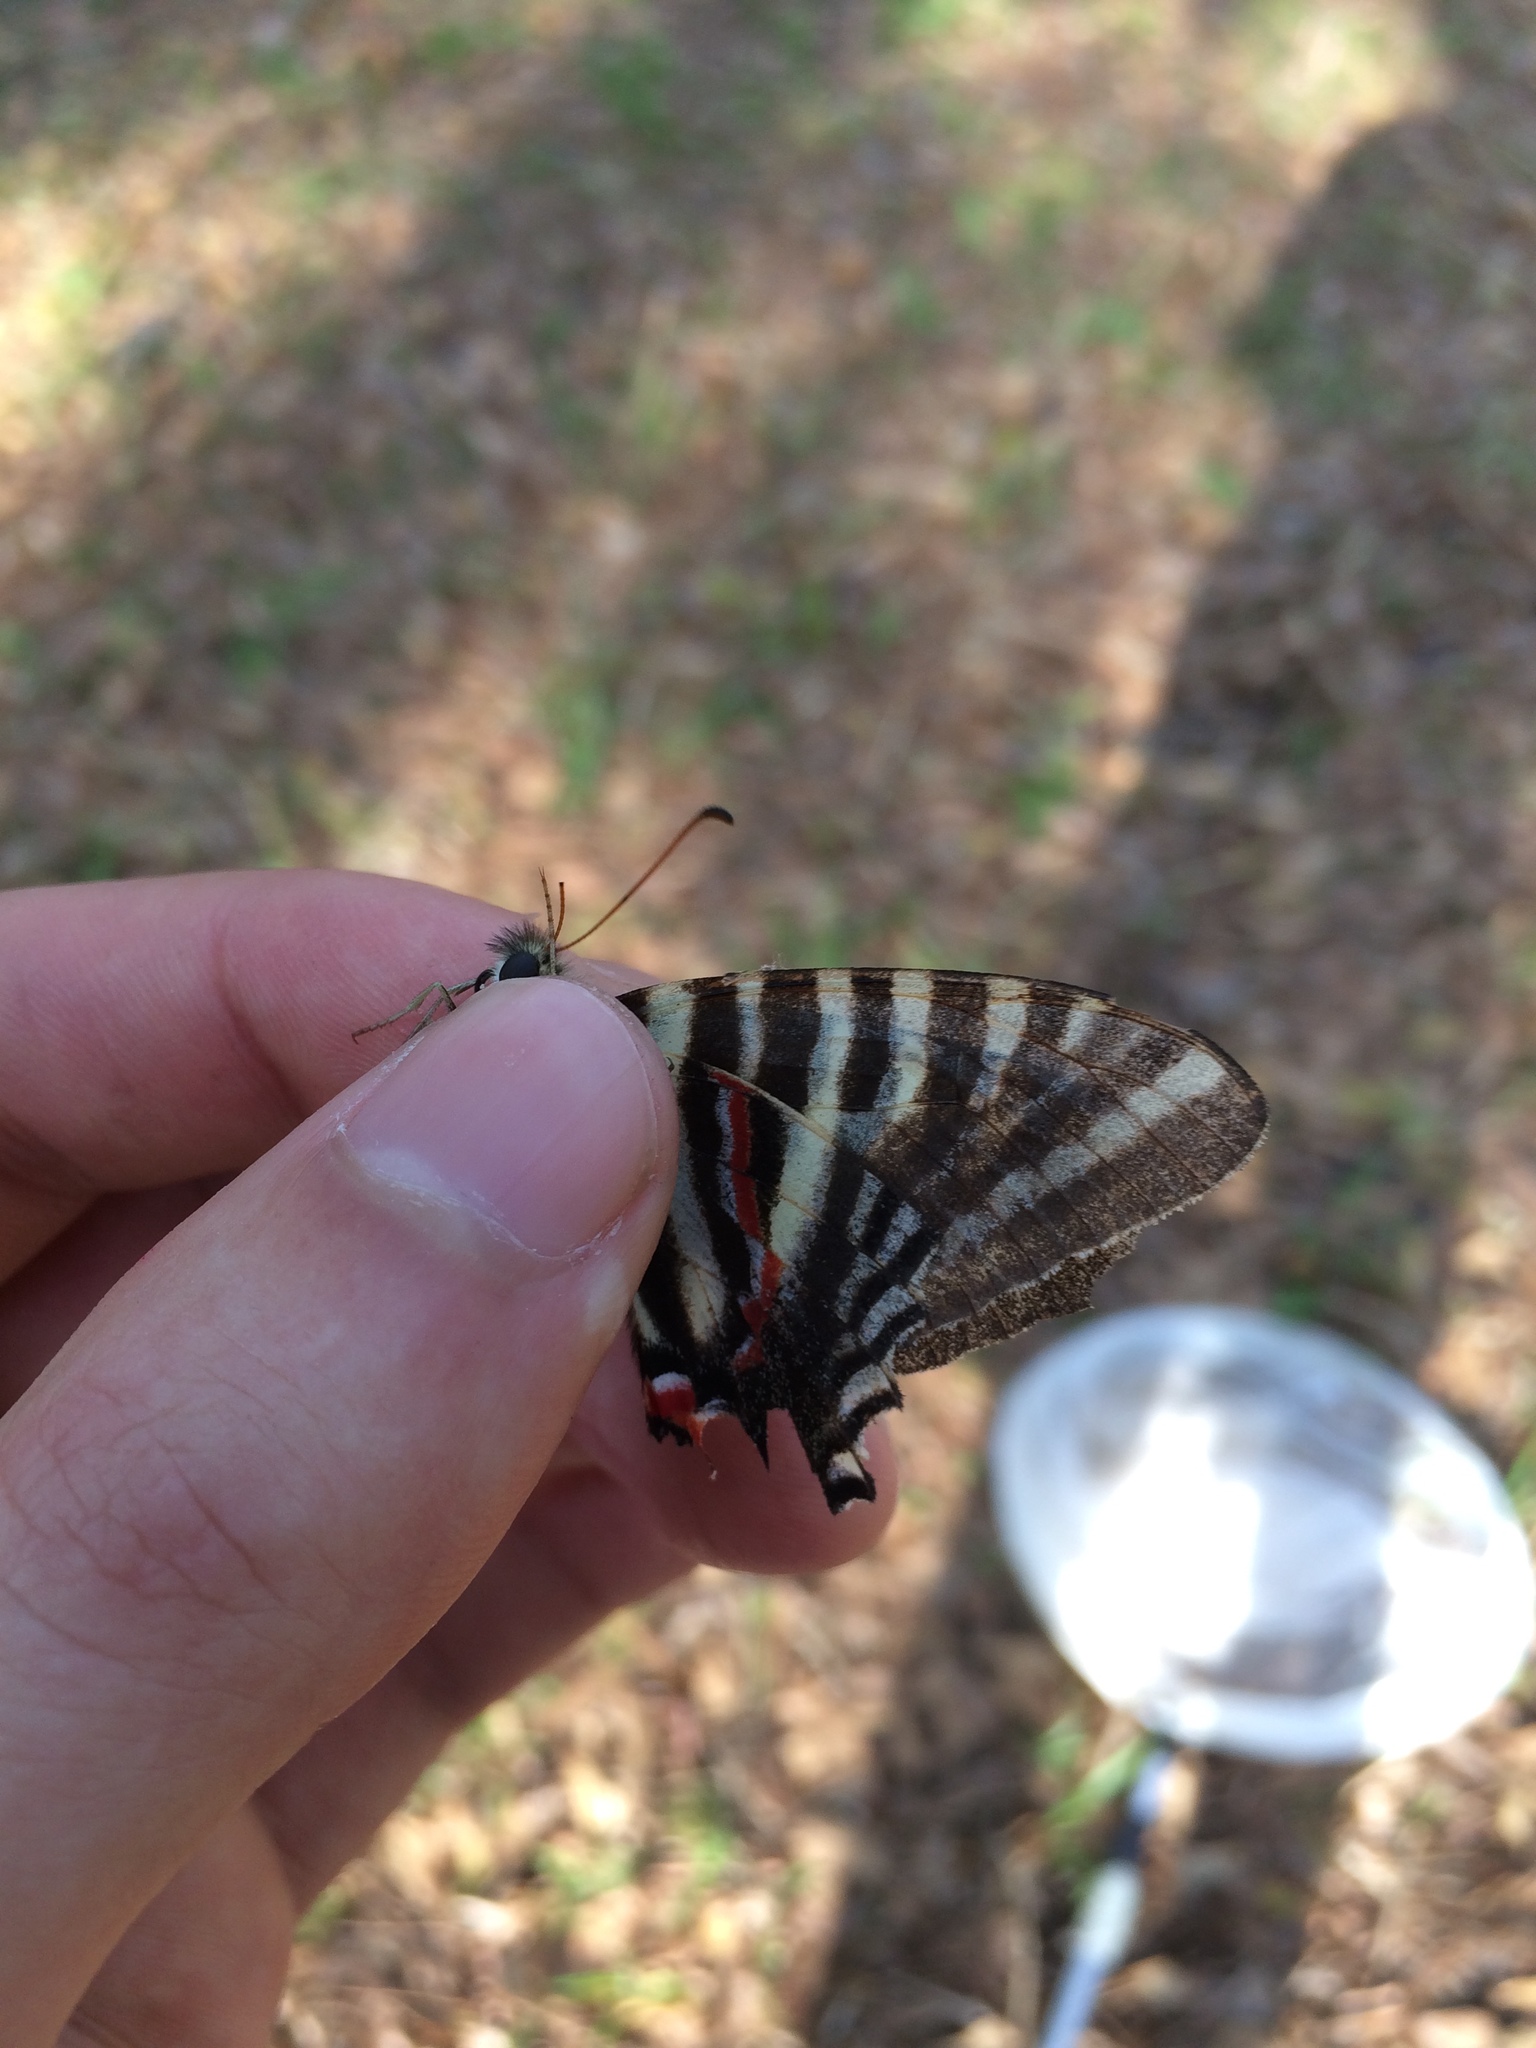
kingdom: Animalia
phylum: Arthropoda
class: Insecta
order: Lepidoptera
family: Papilionidae
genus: Protographium
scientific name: Protographium marcellus
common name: Zebra swallowtail
